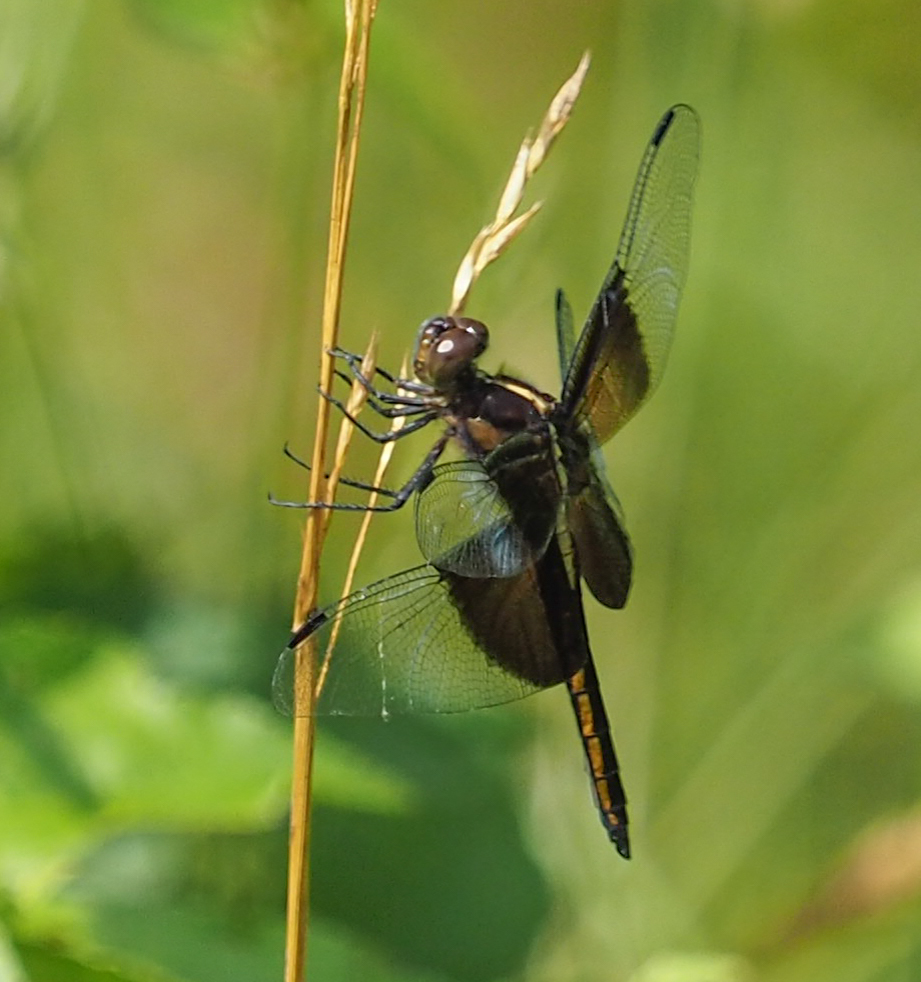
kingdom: Animalia
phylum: Arthropoda
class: Insecta
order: Odonata
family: Libellulidae
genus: Libellula
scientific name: Libellula luctuosa
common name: Widow skimmer
